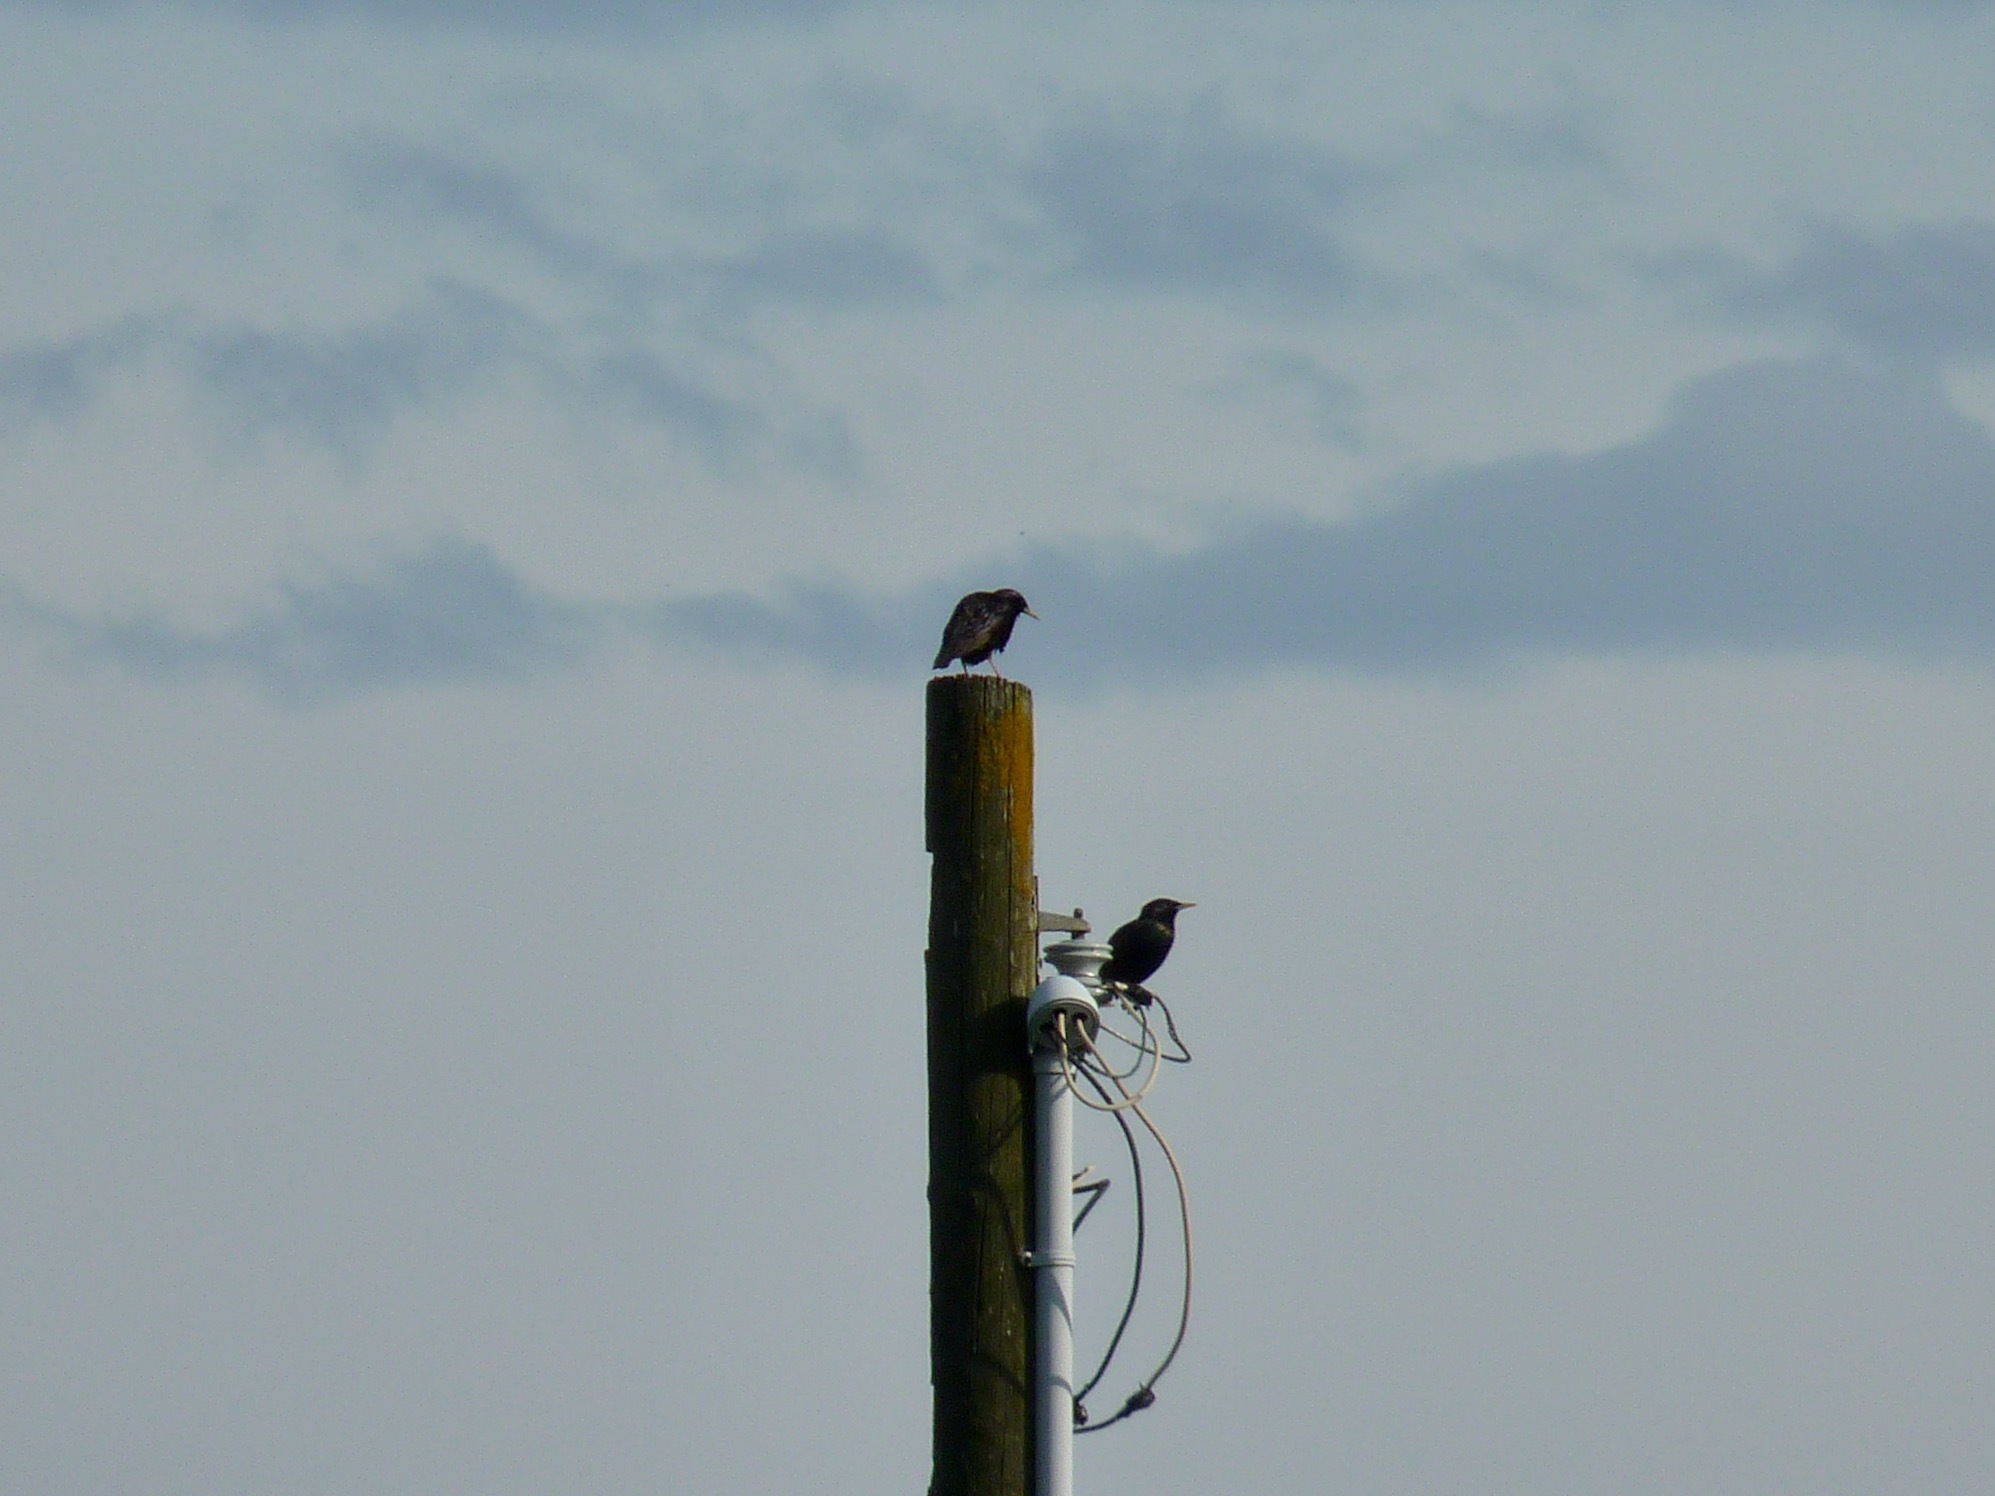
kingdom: Animalia
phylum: Chordata
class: Aves
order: Passeriformes
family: Sturnidae
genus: Sturnus
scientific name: Sturnus vulgaris
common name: Common starling
